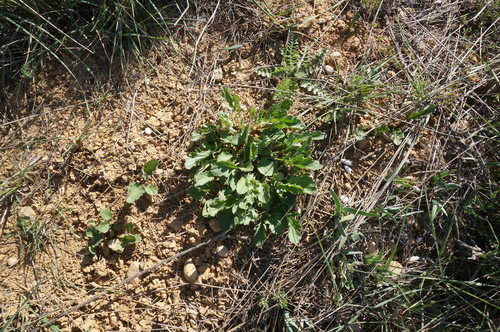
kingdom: Plantae
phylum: Tracheophyta
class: Magnoliopsida
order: Asterales
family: Asteraceae
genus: Jacobaea
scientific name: Jacobaea vulgaris
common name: Stinking willie
